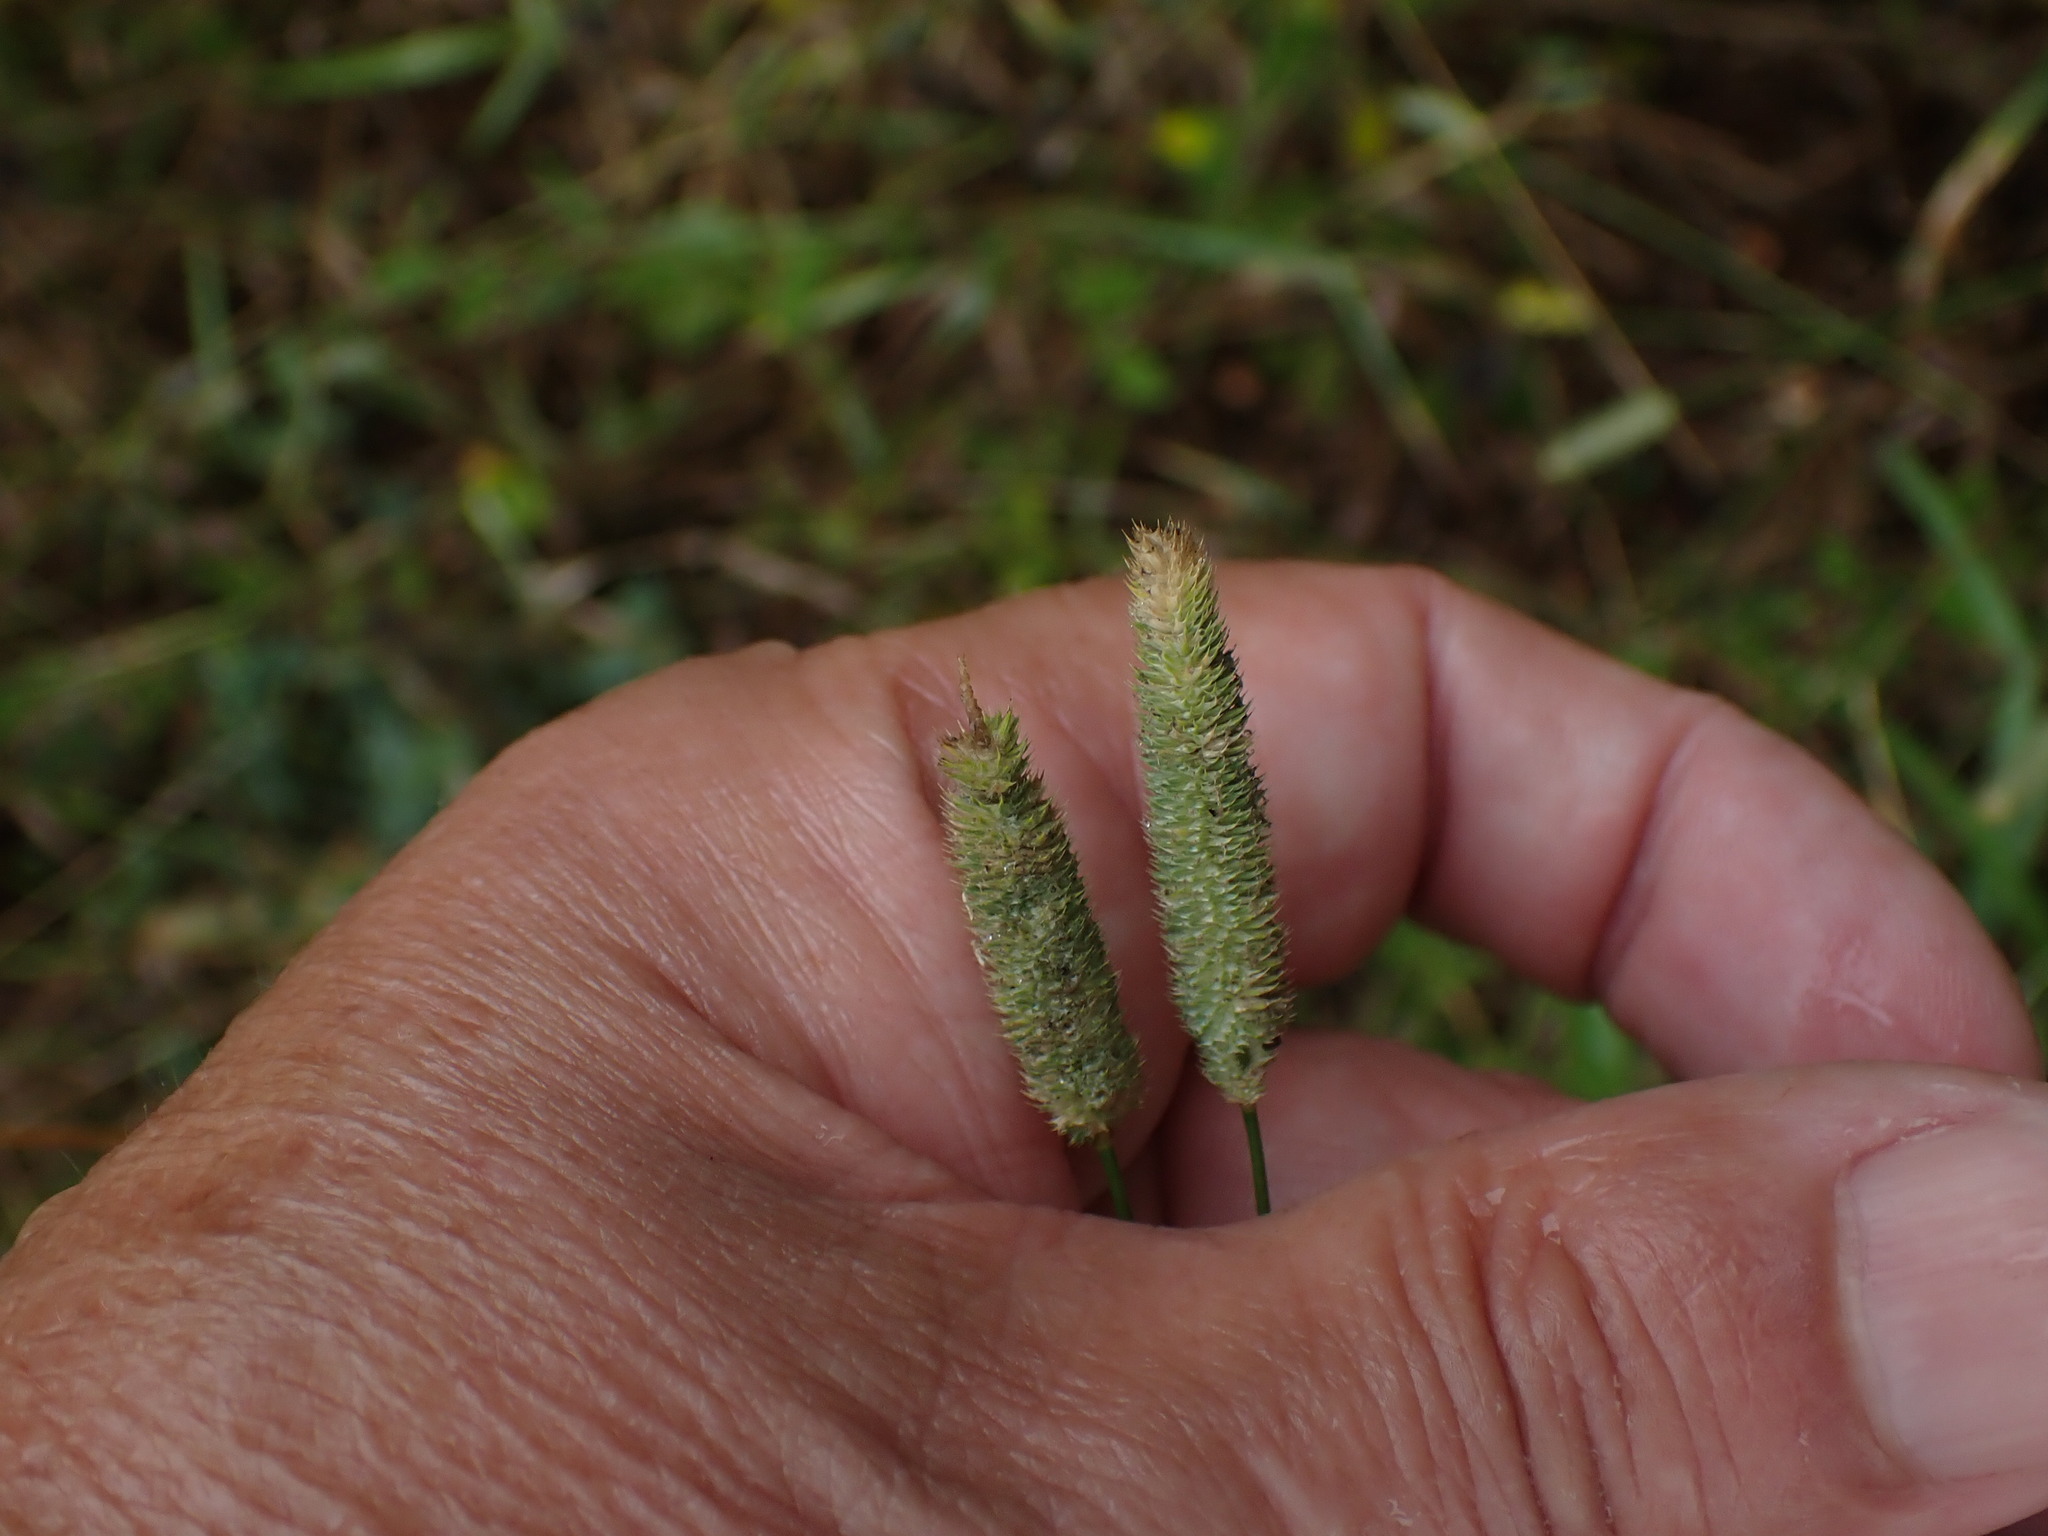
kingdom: Plantae
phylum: Tracheophyta
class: Liliopsida
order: Poales
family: Poaceae
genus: Phleum
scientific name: Phleum bertolonii
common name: Smaller cat's-tail
